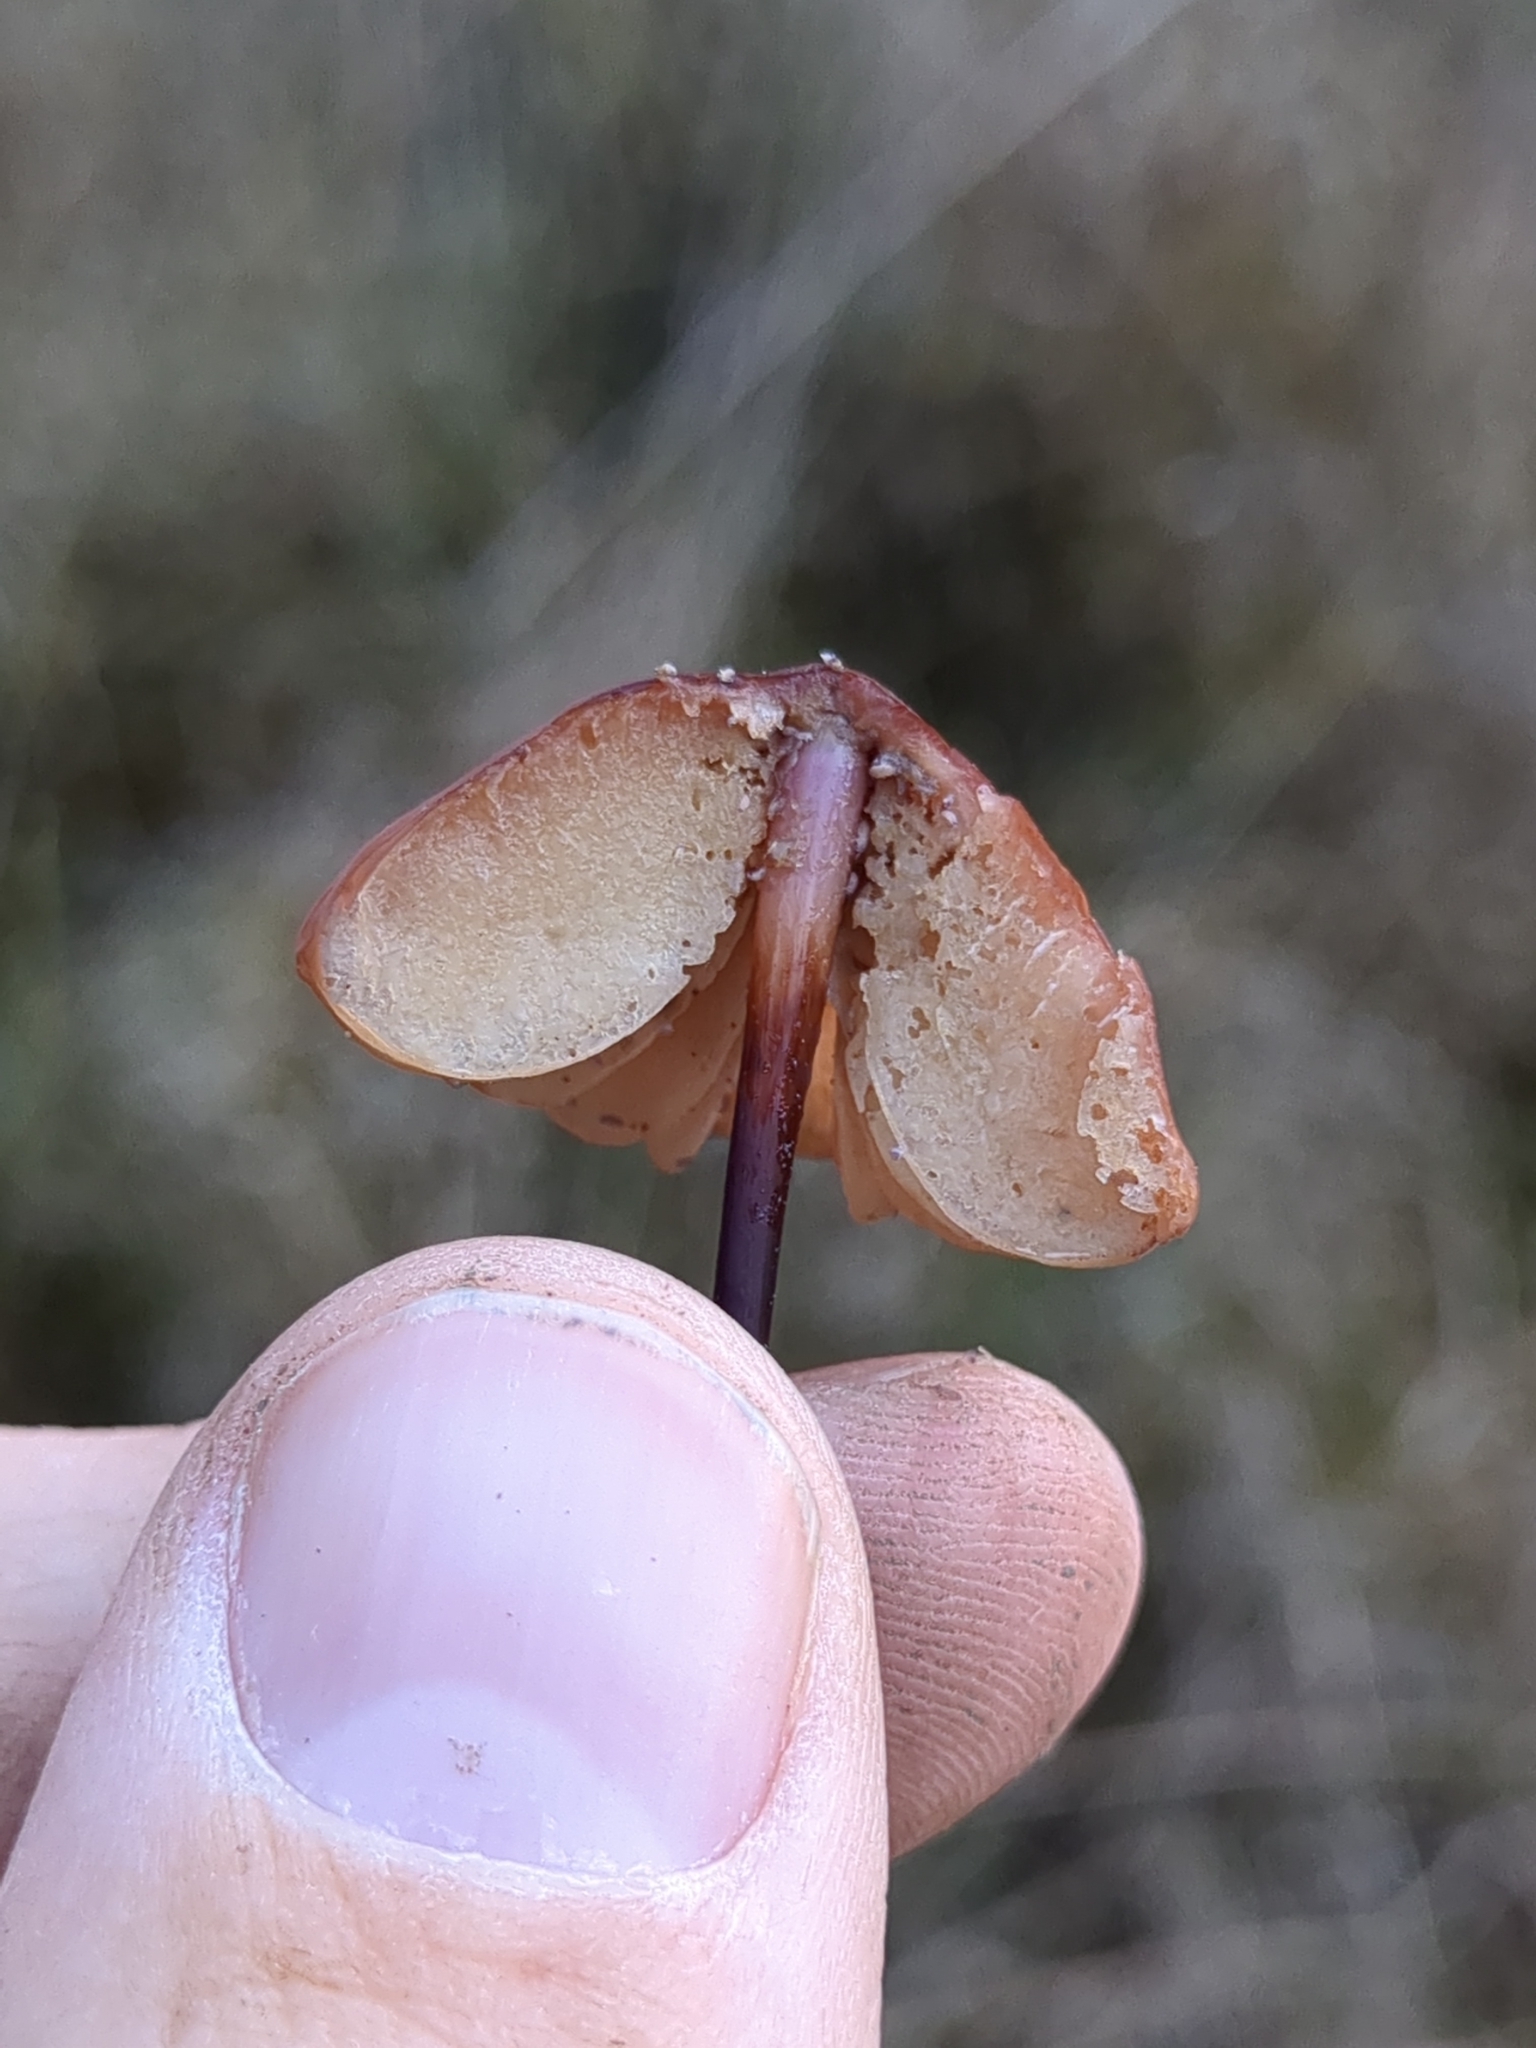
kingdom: Fungi
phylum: Basidiomycota
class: Agaricomycetes
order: Agaricales
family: Marasmiaceae
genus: Marasmius
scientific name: Marasmius plicatulus
